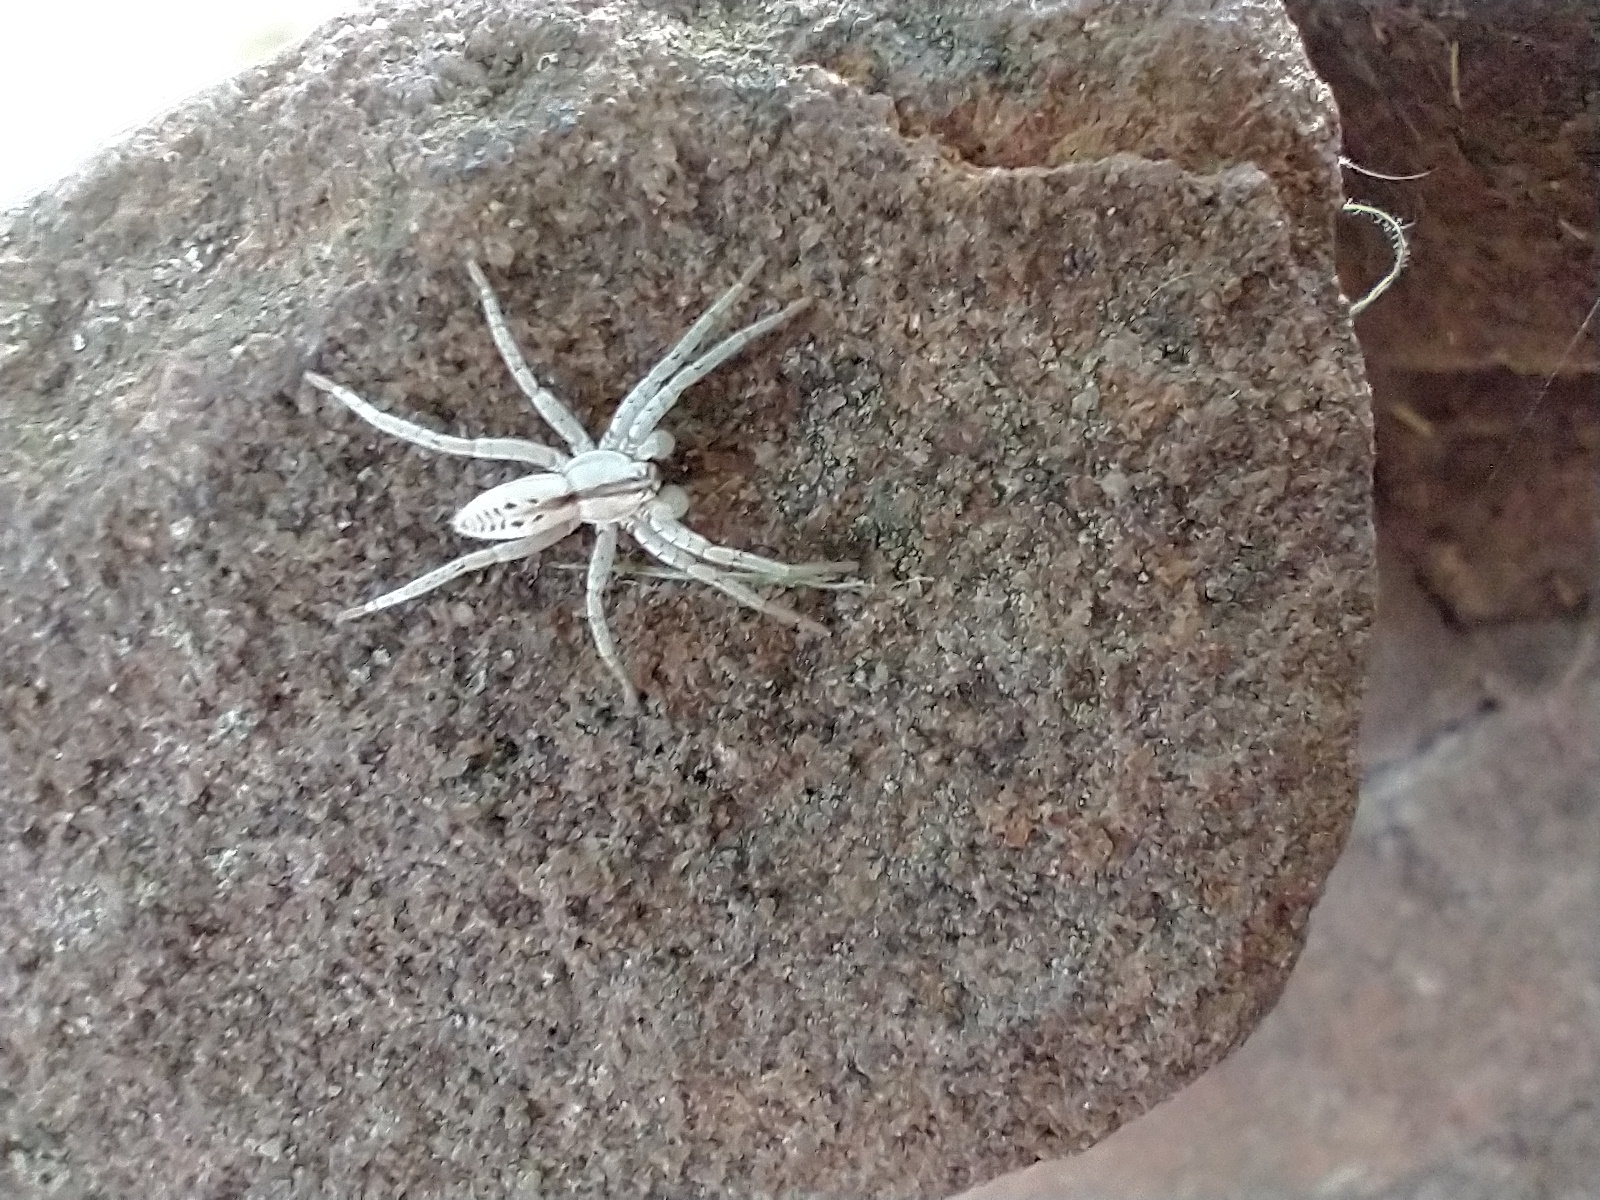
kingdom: Animalia
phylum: Arthropoda
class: Arachnida
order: Araneae
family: Anyphaenidae
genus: Arachosia
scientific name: Arachosia praesignis
